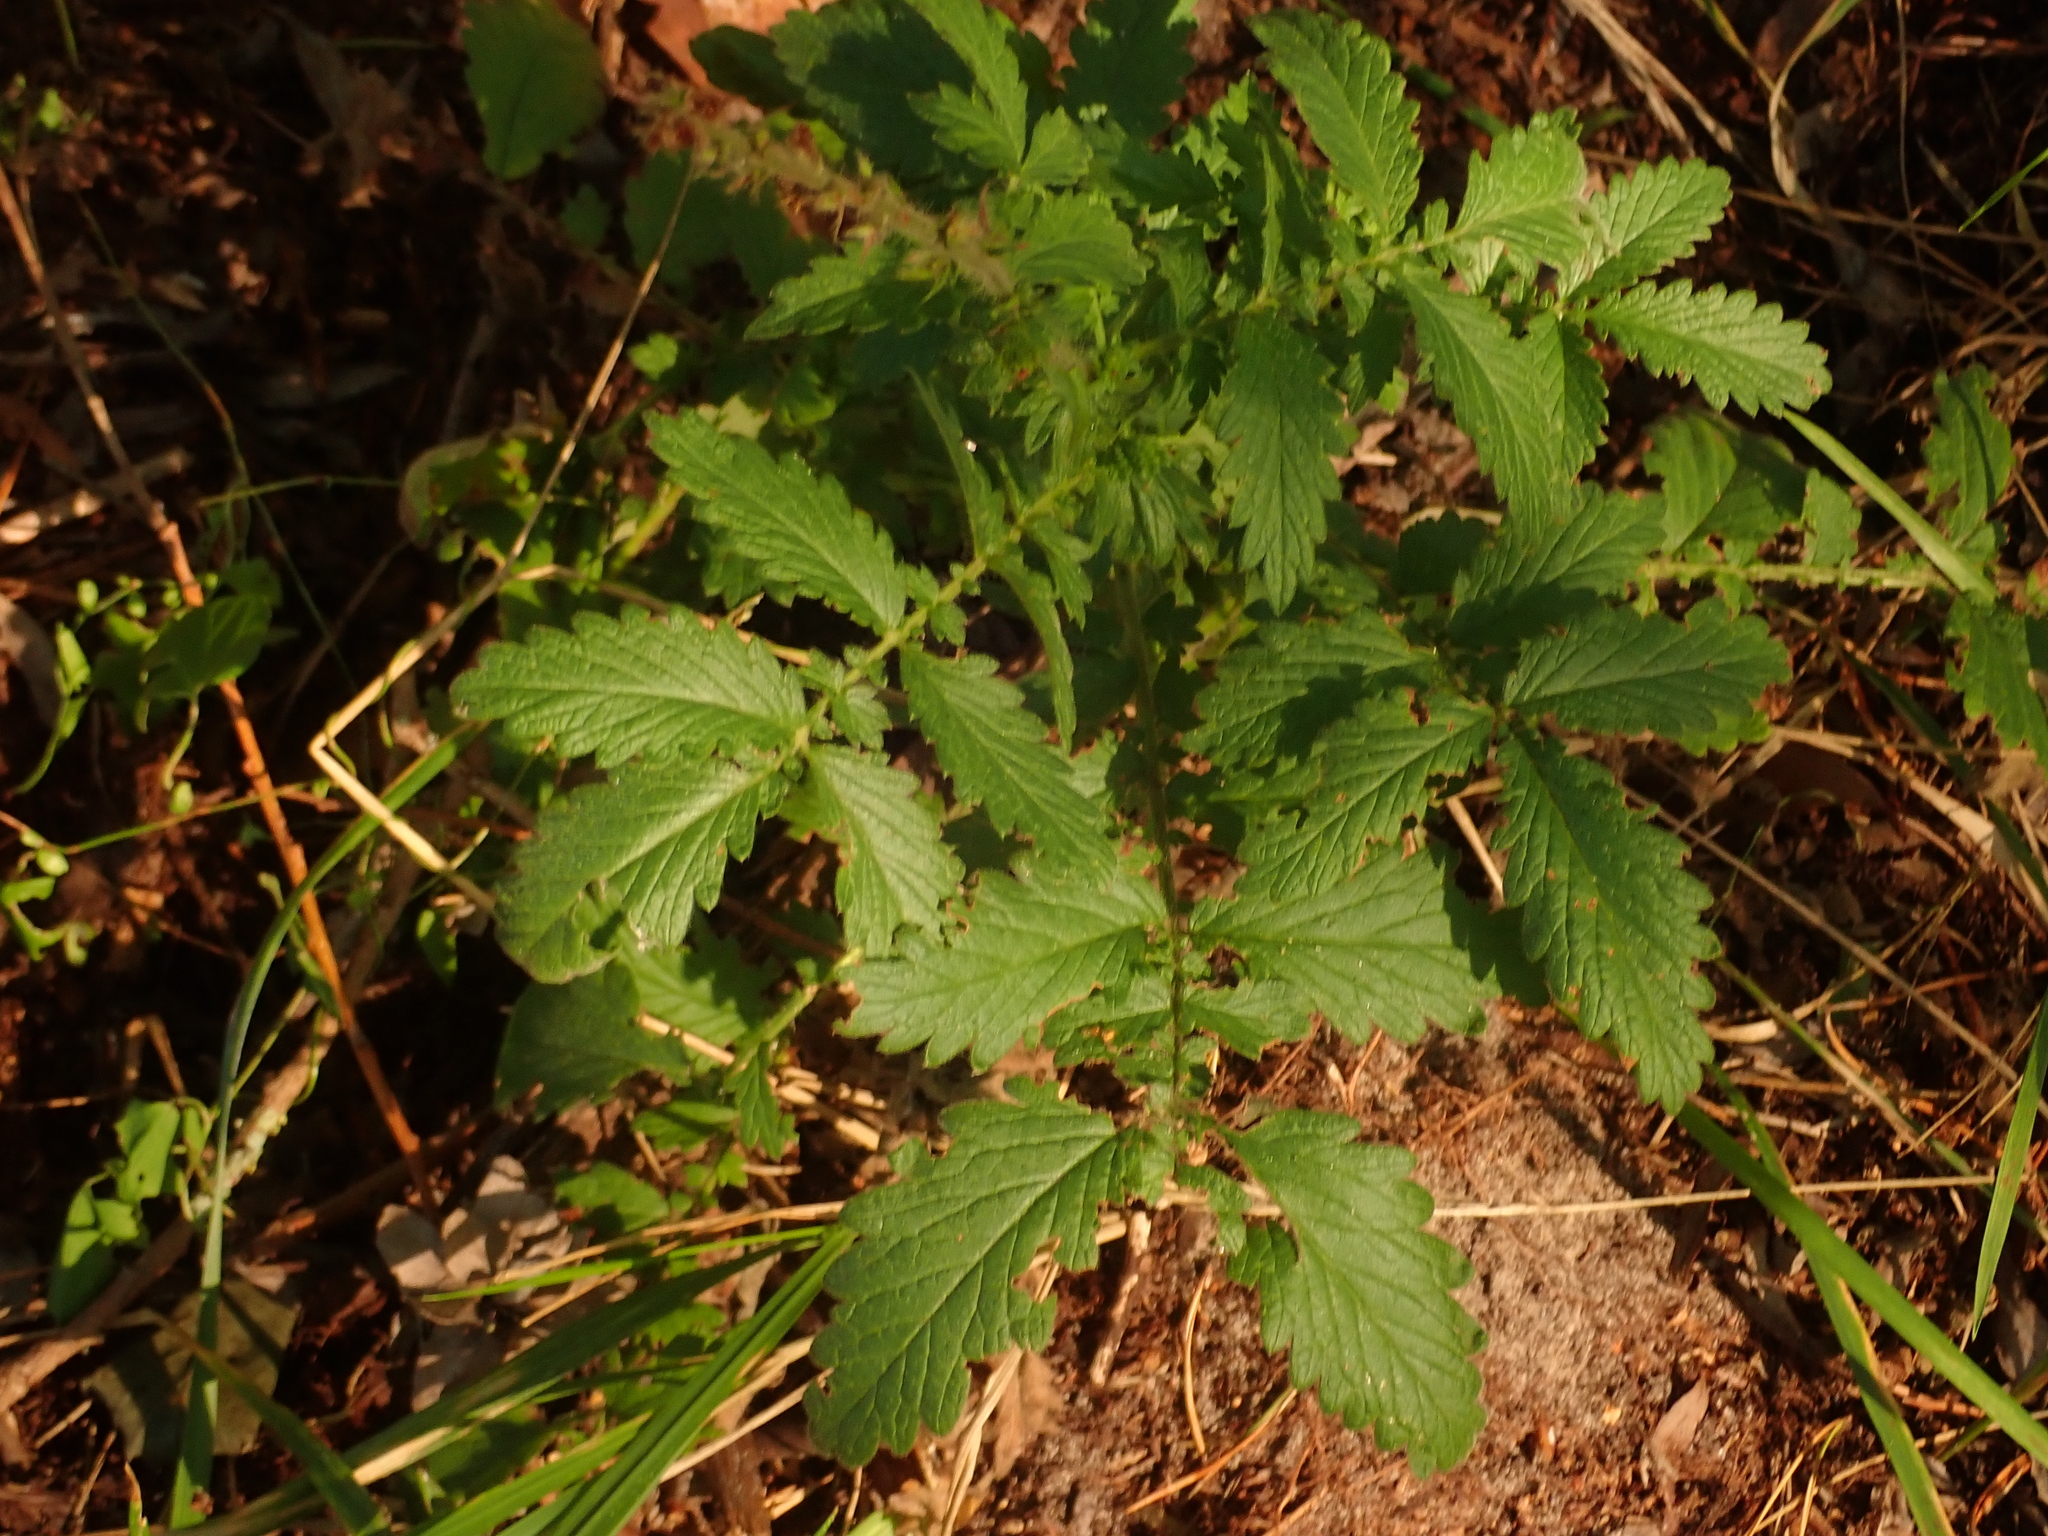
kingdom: Plantae
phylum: Tracheophyta
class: Magnoliopsida
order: Rosales
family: Rosaceae
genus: Agrimonia
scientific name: Agrimonia eupatoria
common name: Agrimony
